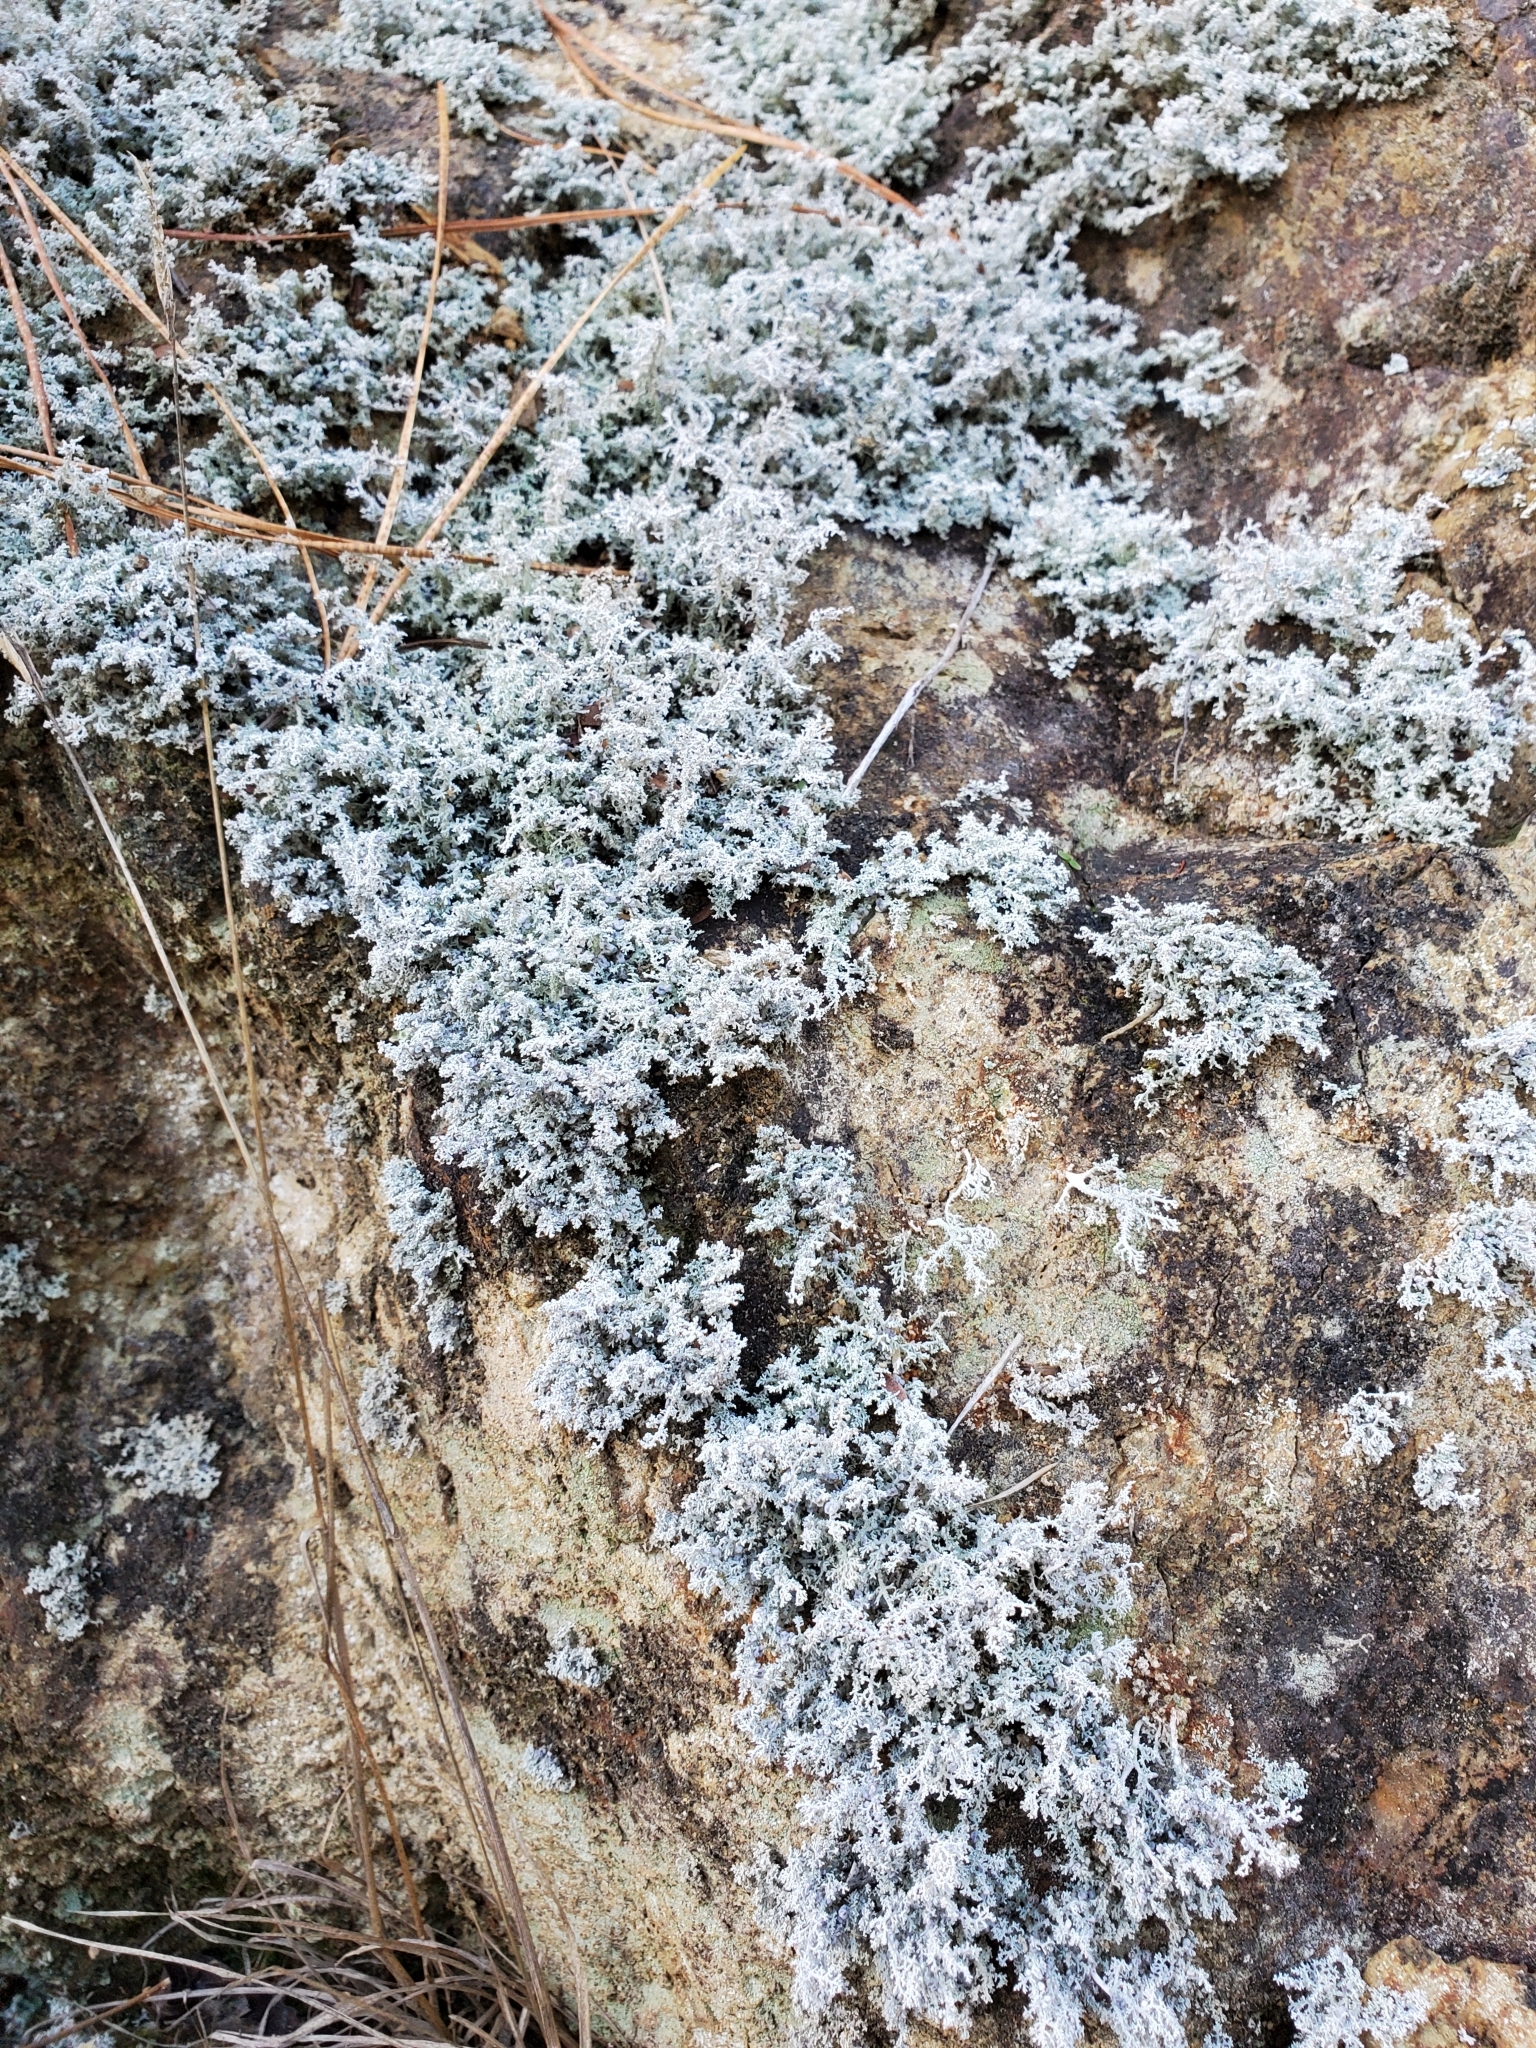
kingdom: Fungi
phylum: Ascomycota
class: Lecanoromycetes
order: Lecanorales
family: Stereocaulaceae
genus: Stereocaulon
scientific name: Stereocaulon ramulosum
